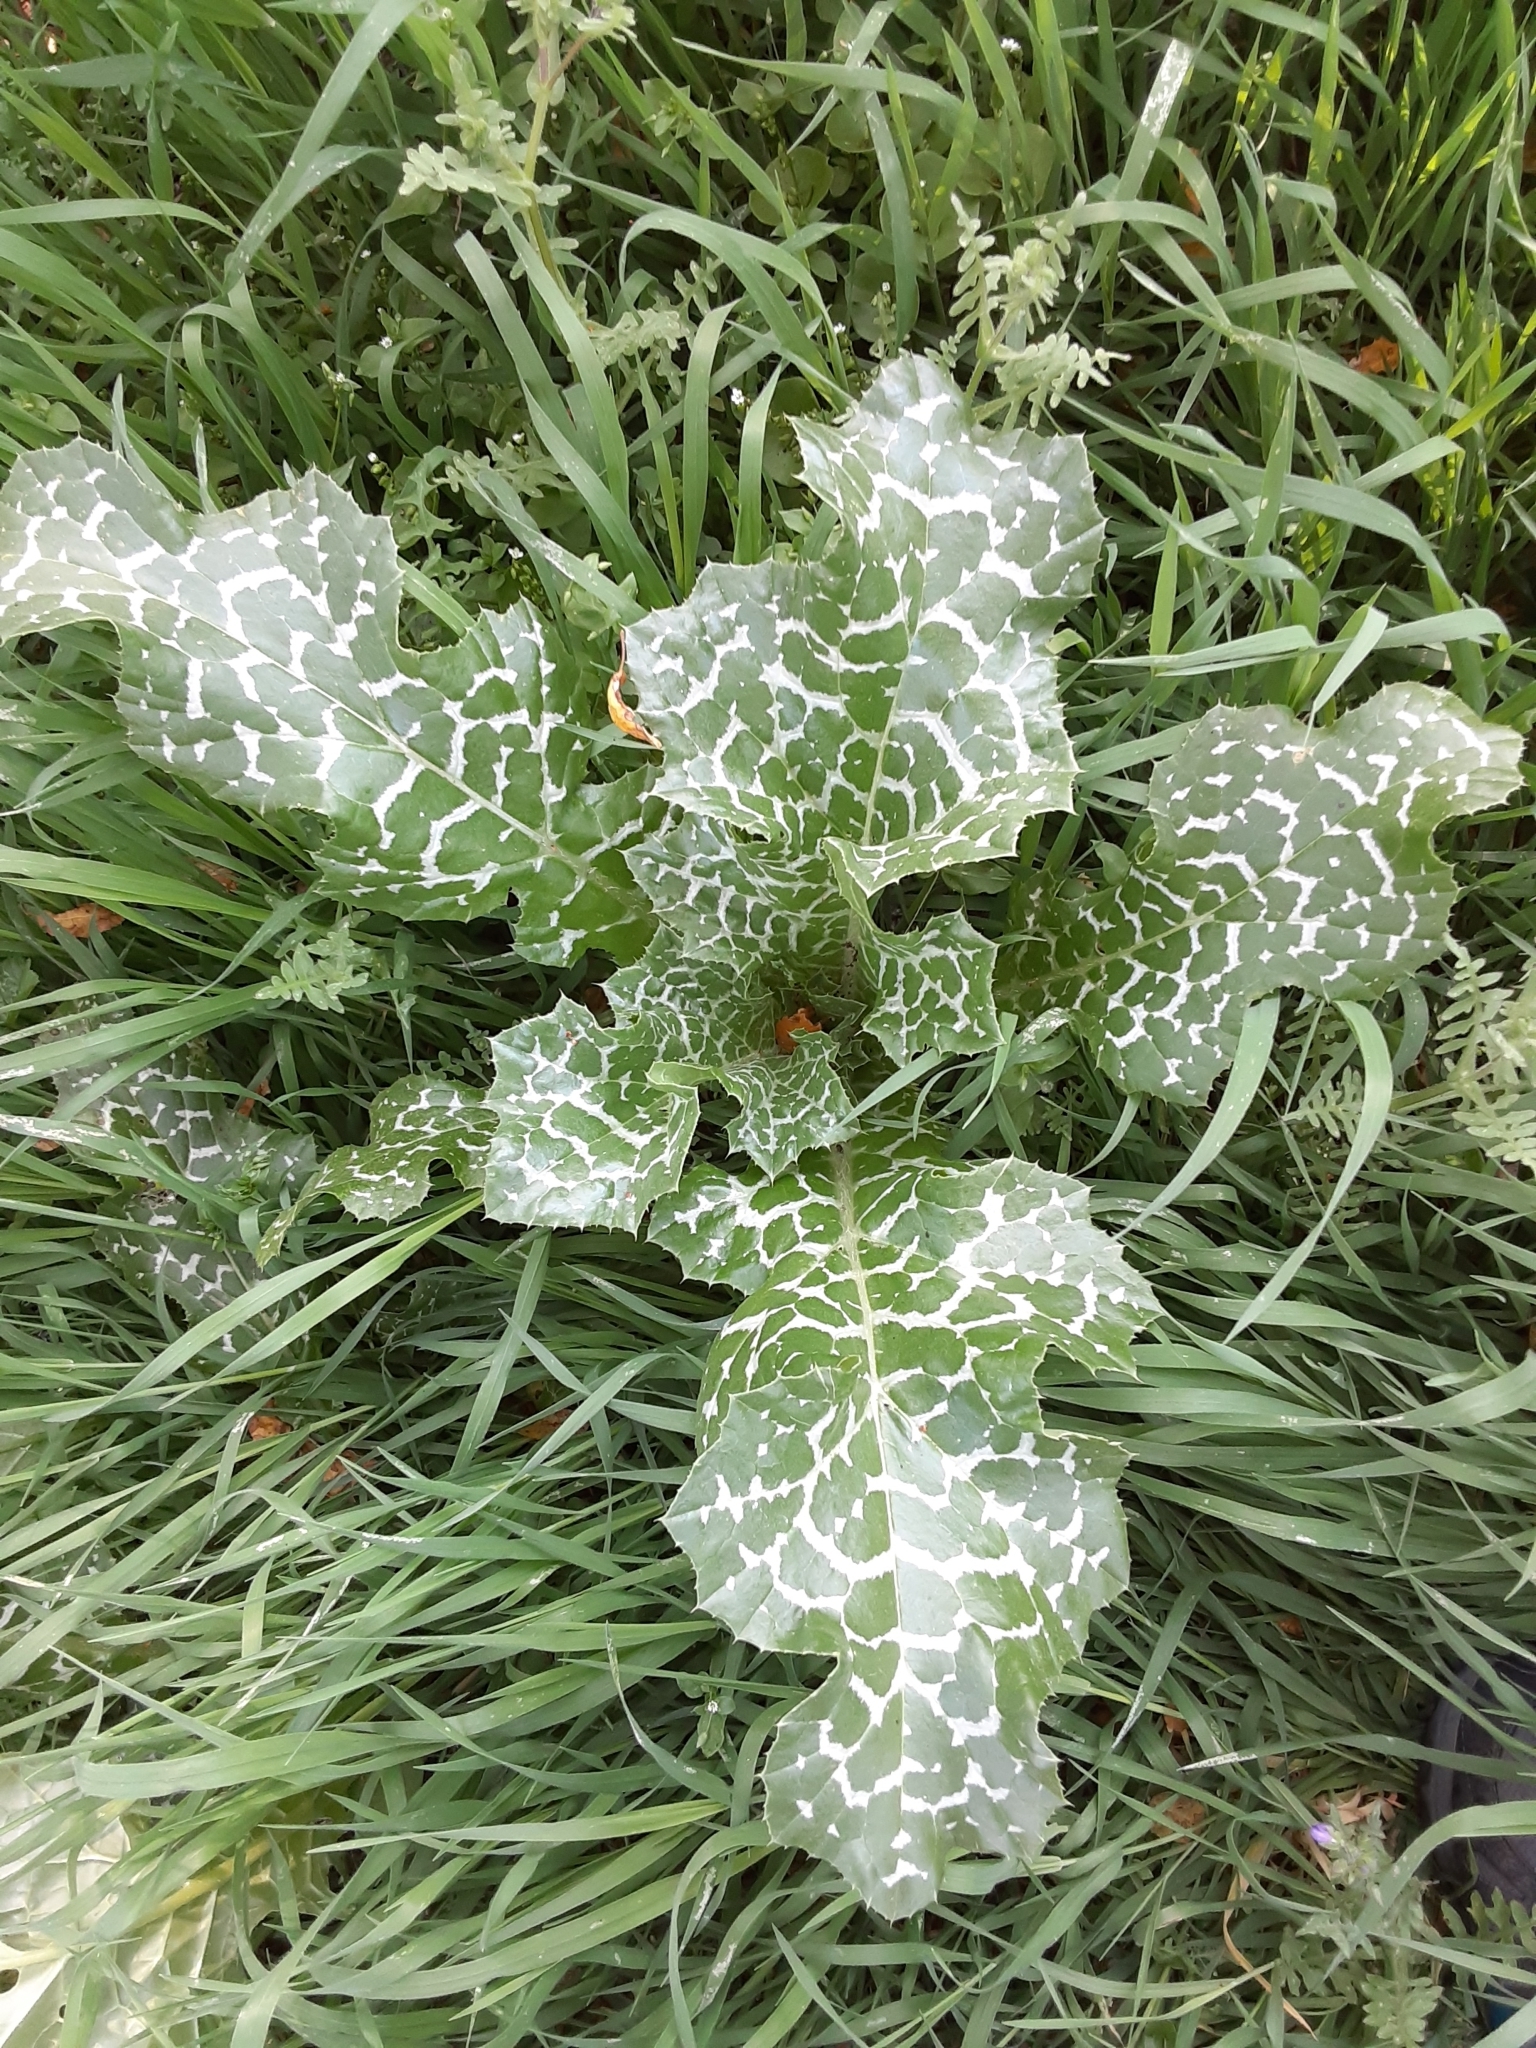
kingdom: Plantae
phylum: Tracheophyta
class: Magnoliopsida
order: Asterales
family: Asteraceae
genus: Silybum
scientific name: Silybum marianum
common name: Milk thistle
